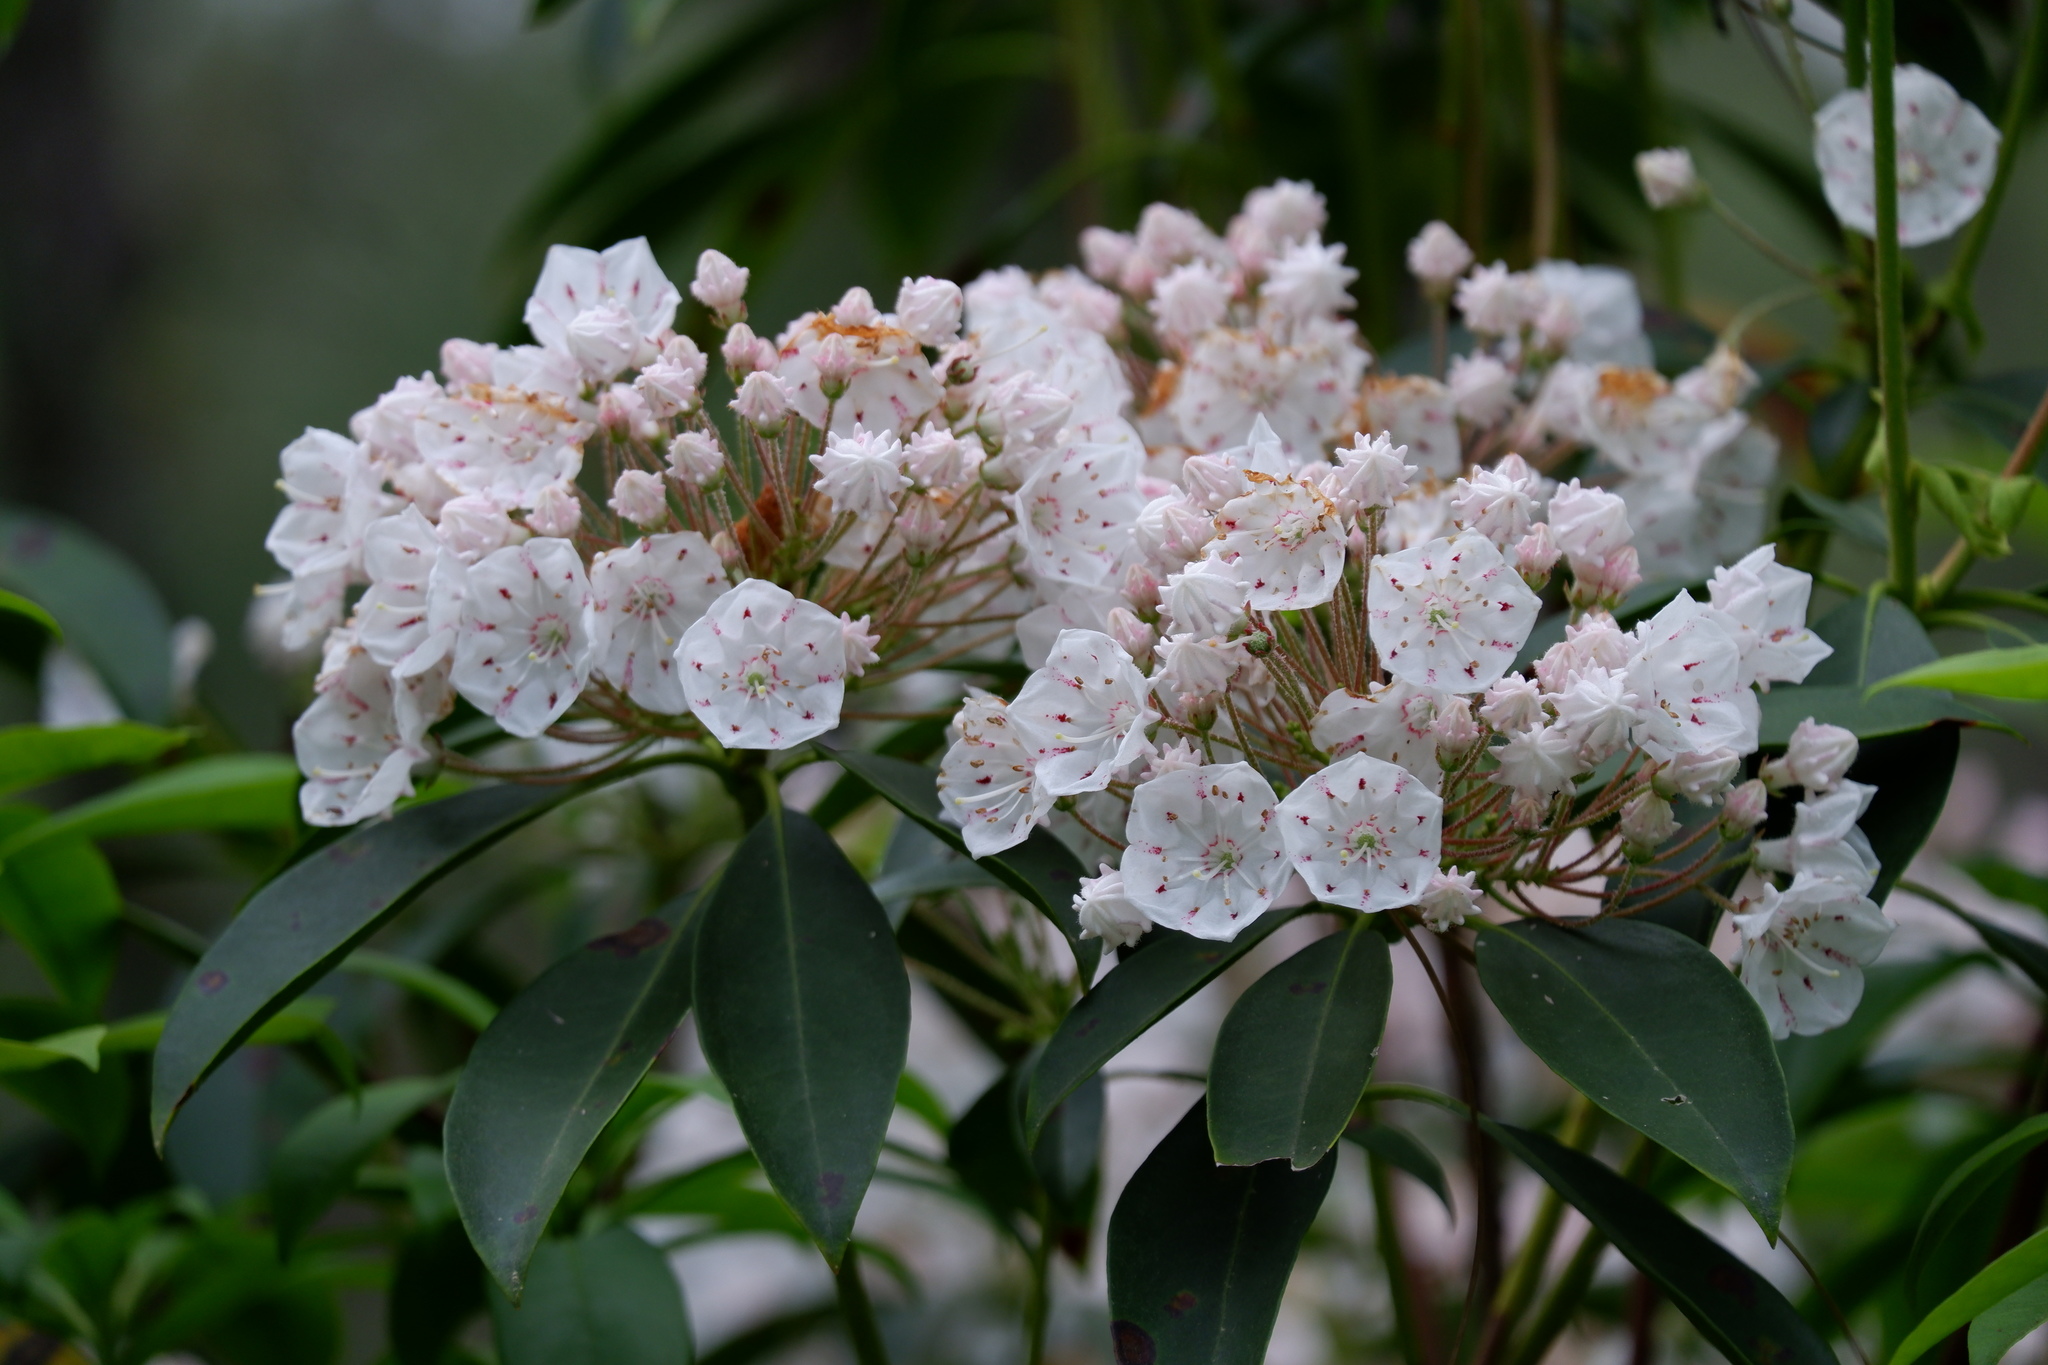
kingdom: Plantae
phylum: Tracheophyta
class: Magnoliopsida
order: Ericales
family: Ericaceae
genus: Kalmia
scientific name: Kalmia latifolia
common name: Mountain-laurel
